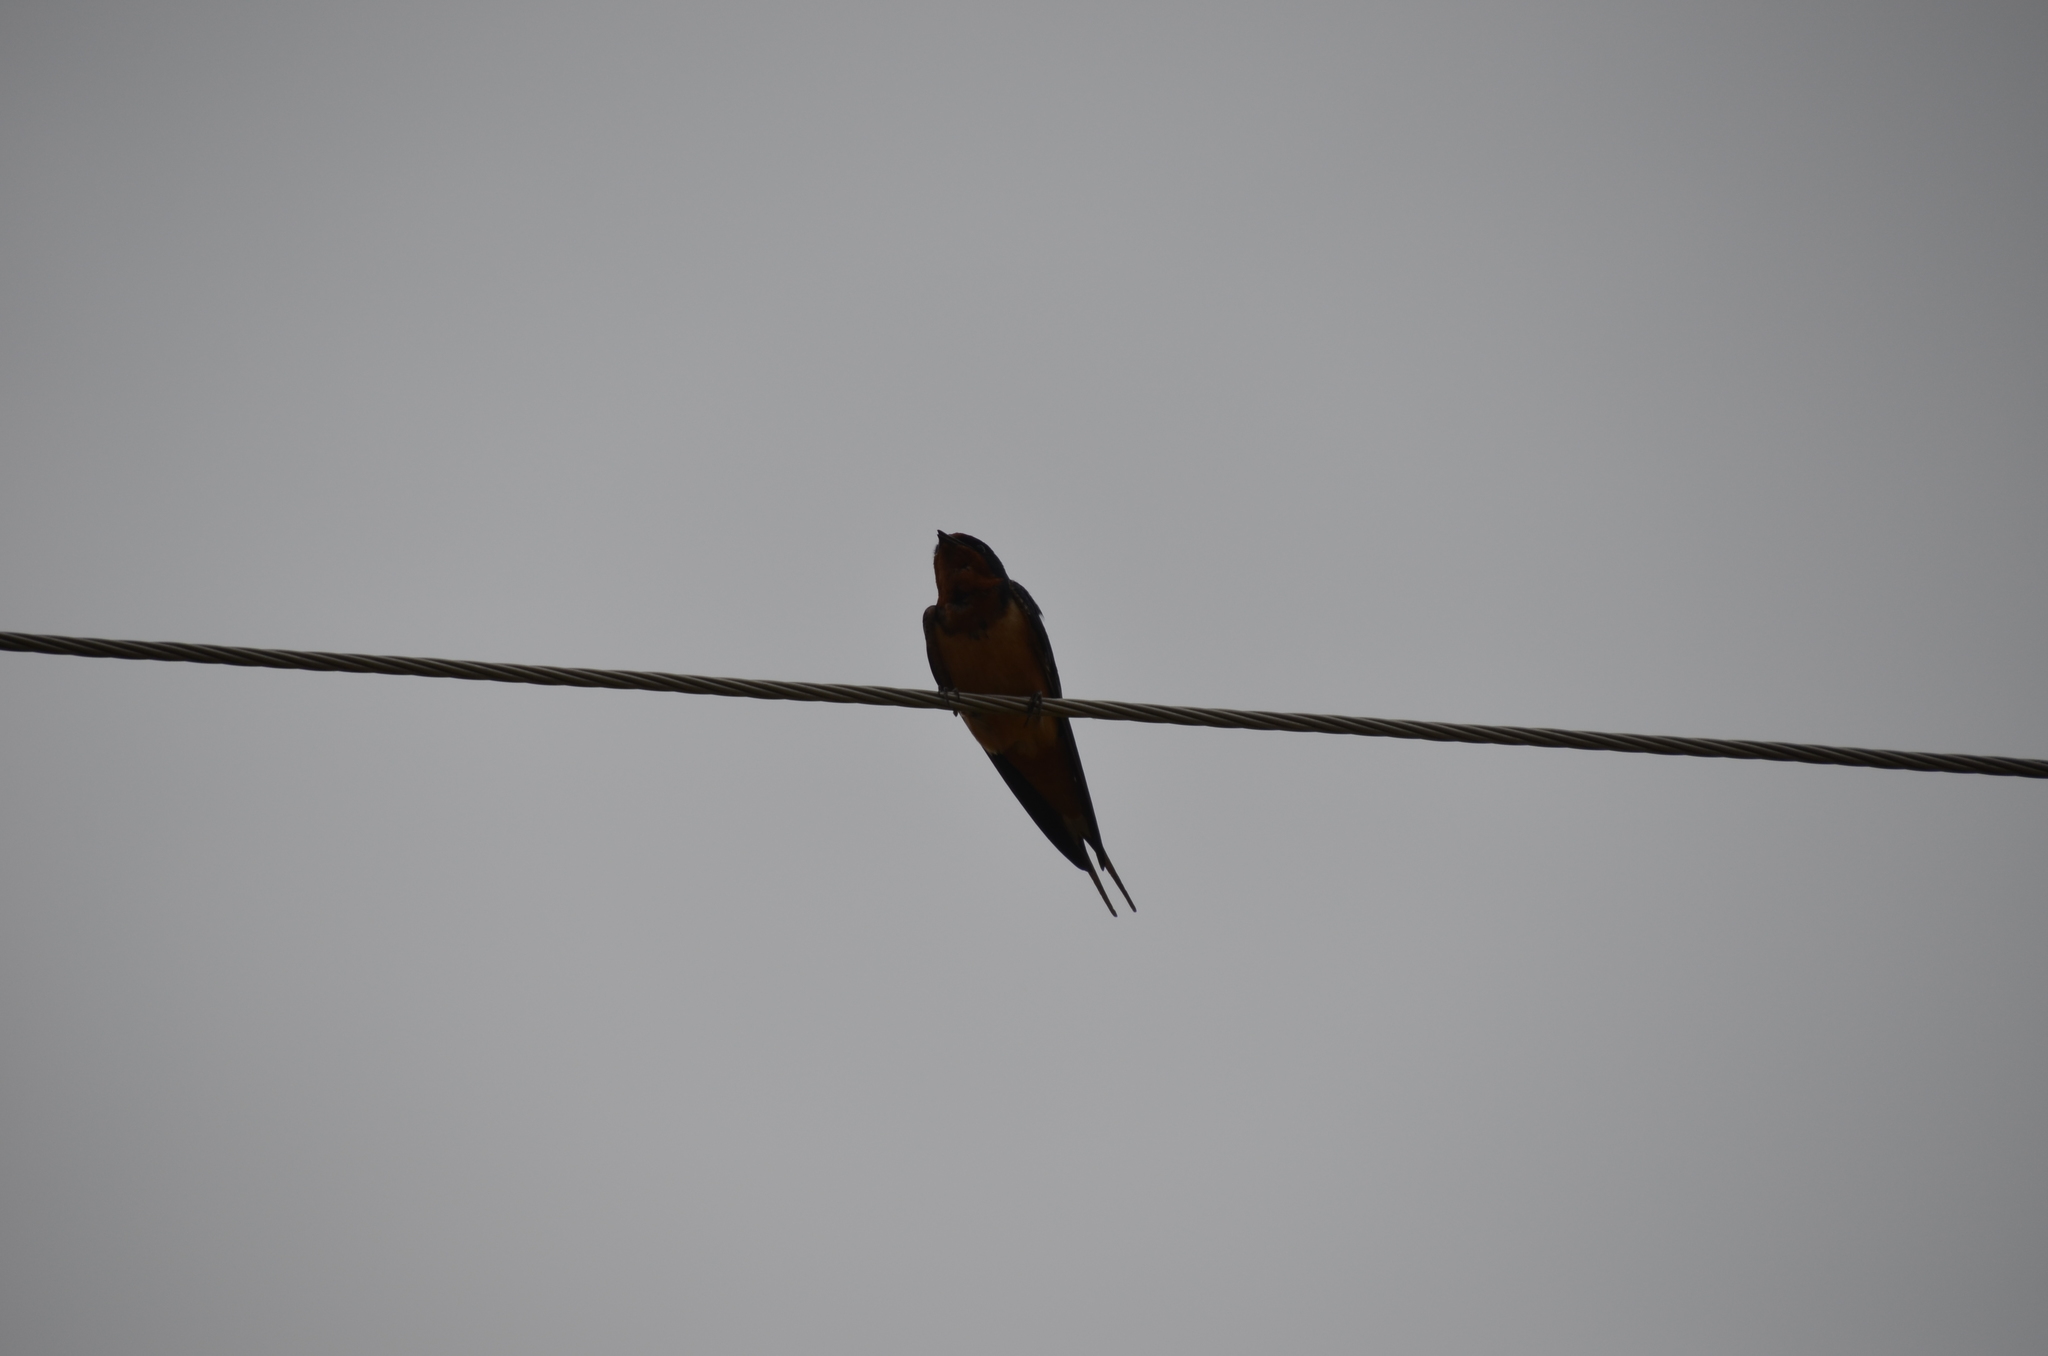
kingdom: Animalia
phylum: Chordata
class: Aves
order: Passeriformes
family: Hirundinidae
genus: Hirundo
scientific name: Hirundo rustica
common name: Barn swallow
